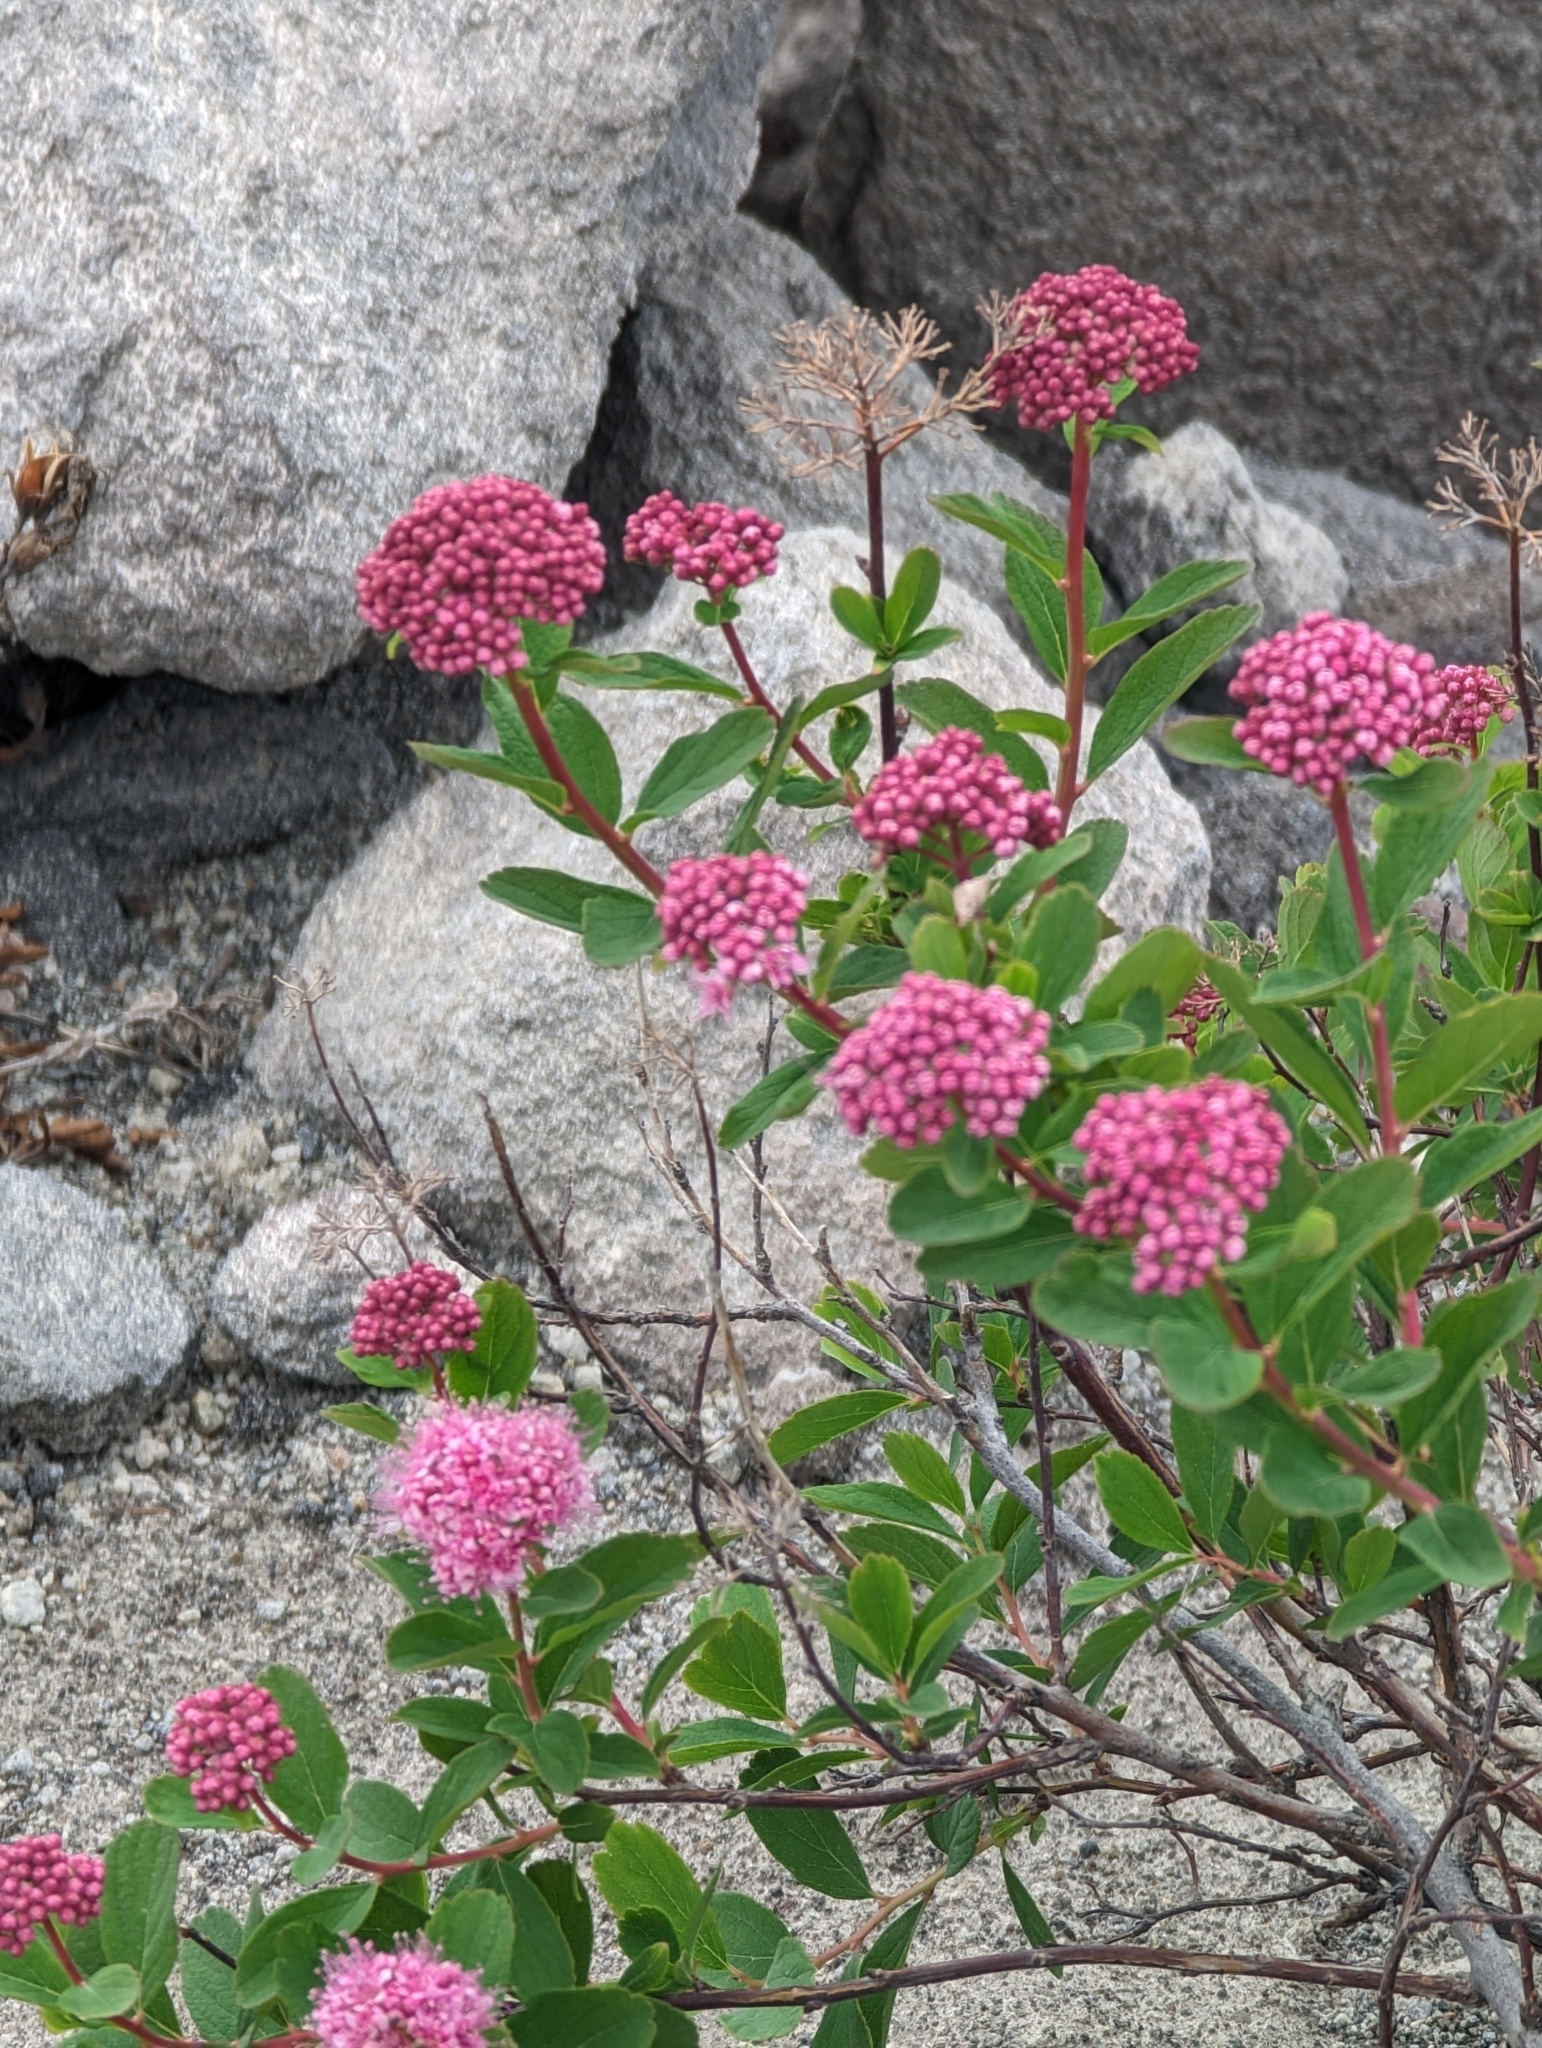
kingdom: Plantae
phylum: Tracheophyta
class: Magnoliopsida
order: Rosales
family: Rosaceae
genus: Spiraea
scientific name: Spiraea splendens
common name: Subalpine meadowsweet
